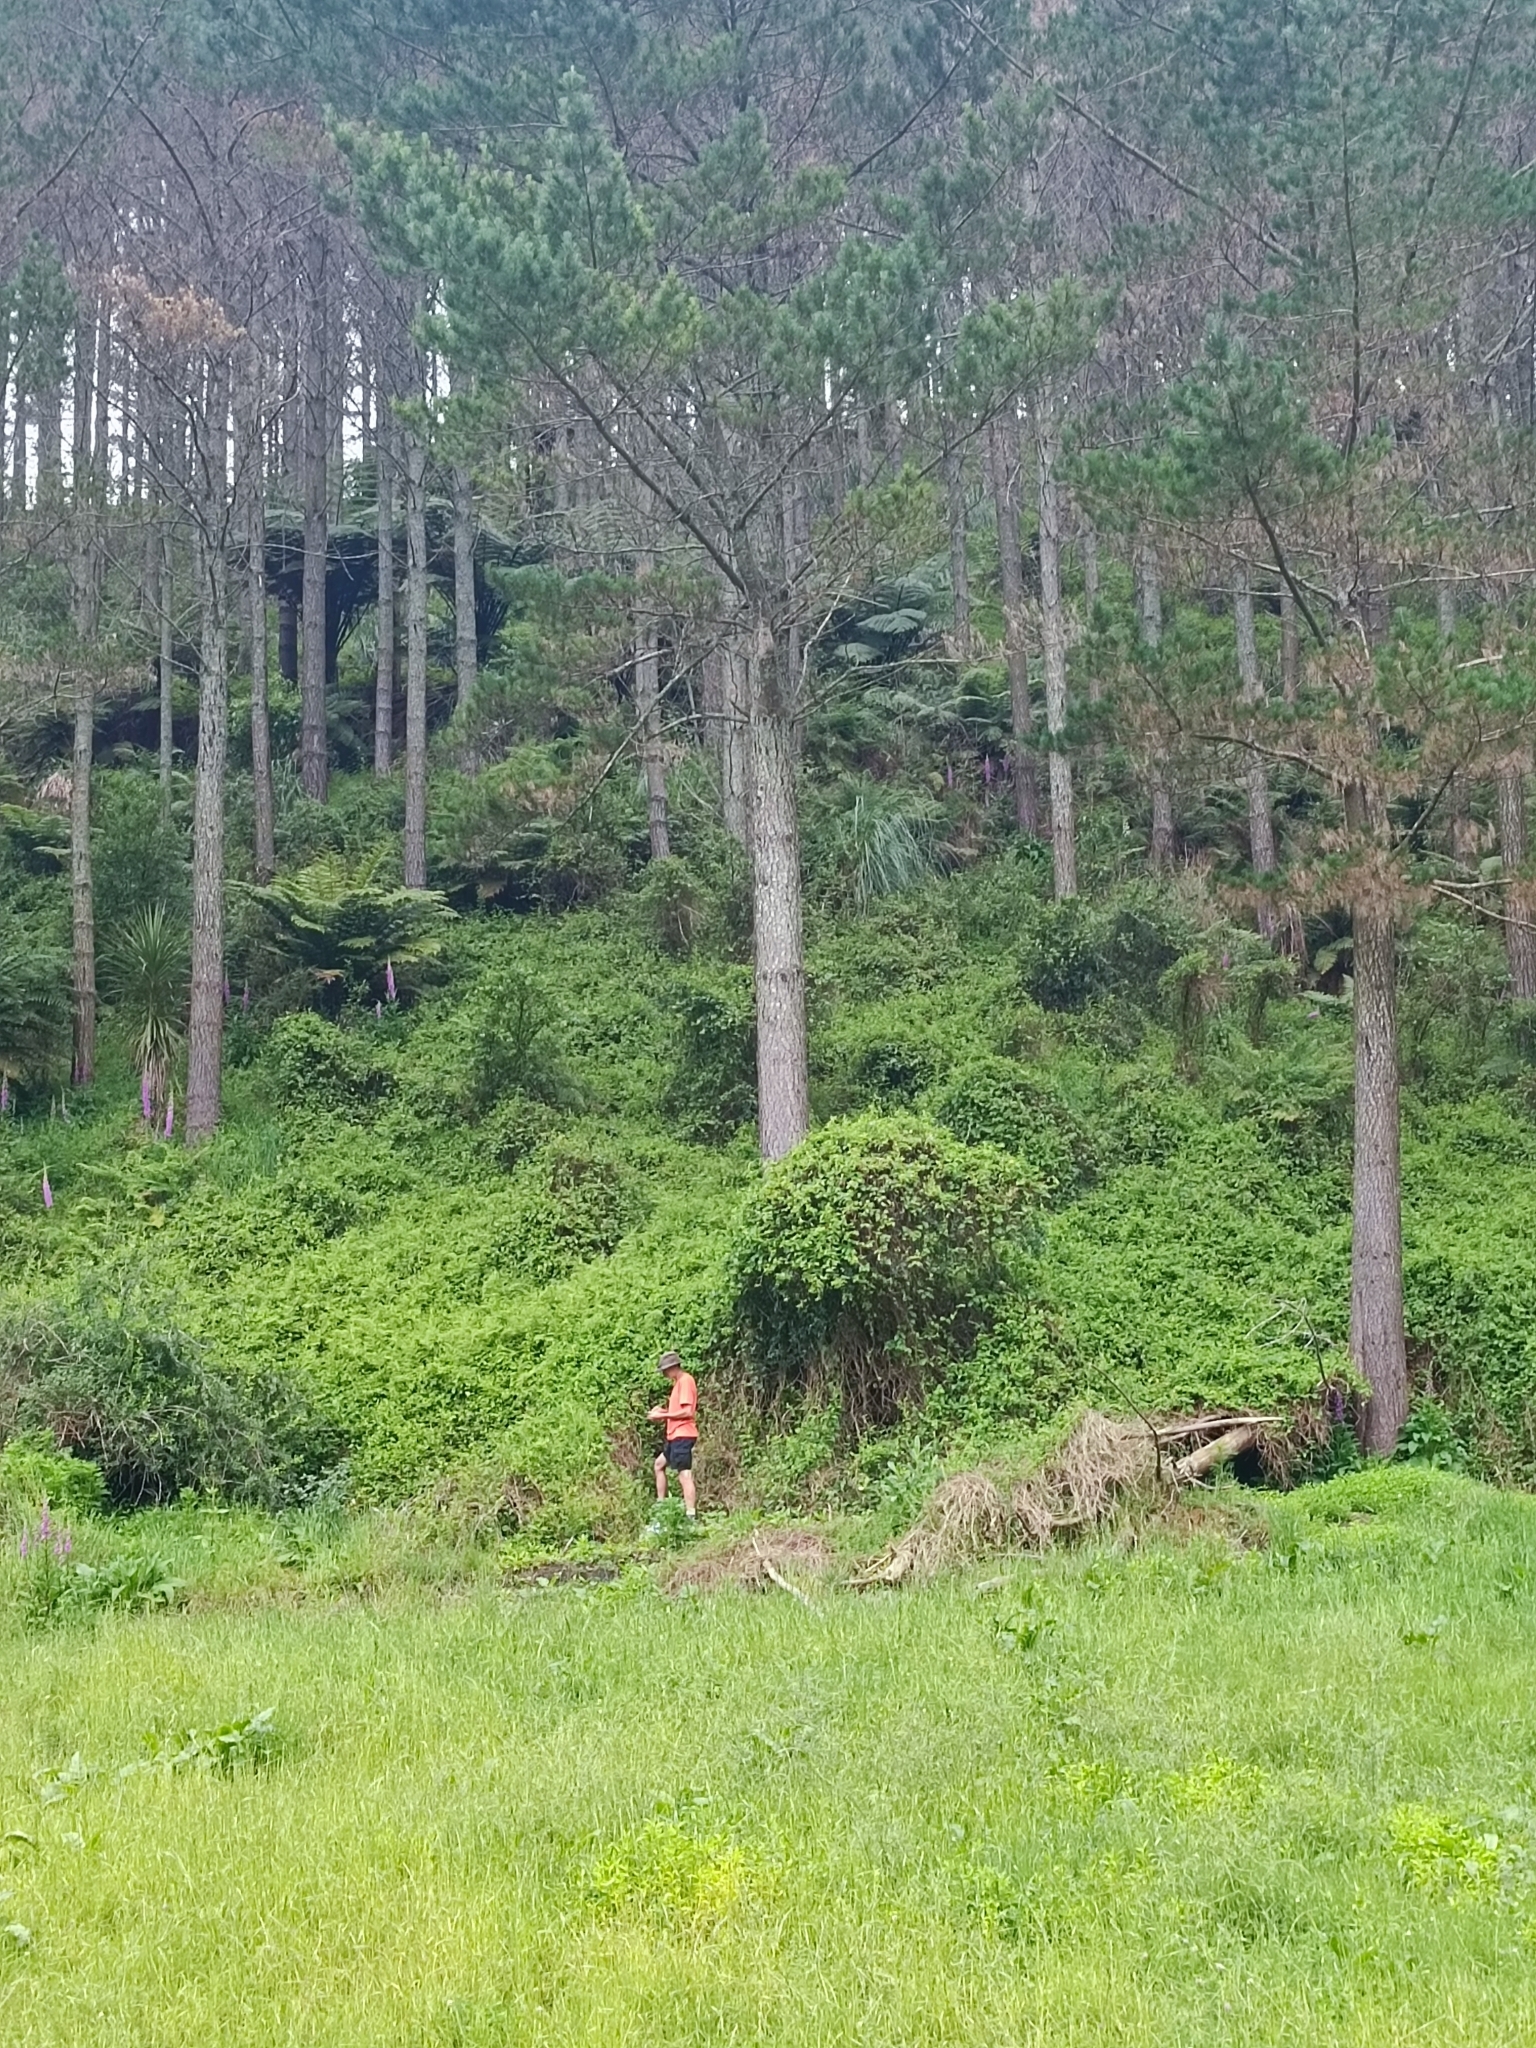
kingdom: Plantae
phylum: Tracheophyta
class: Magnoliopsida
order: Dipsacales
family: Caprifoliaceae
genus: Lonicera
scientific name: Lonicera japonica
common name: Japanese honeysuckle
